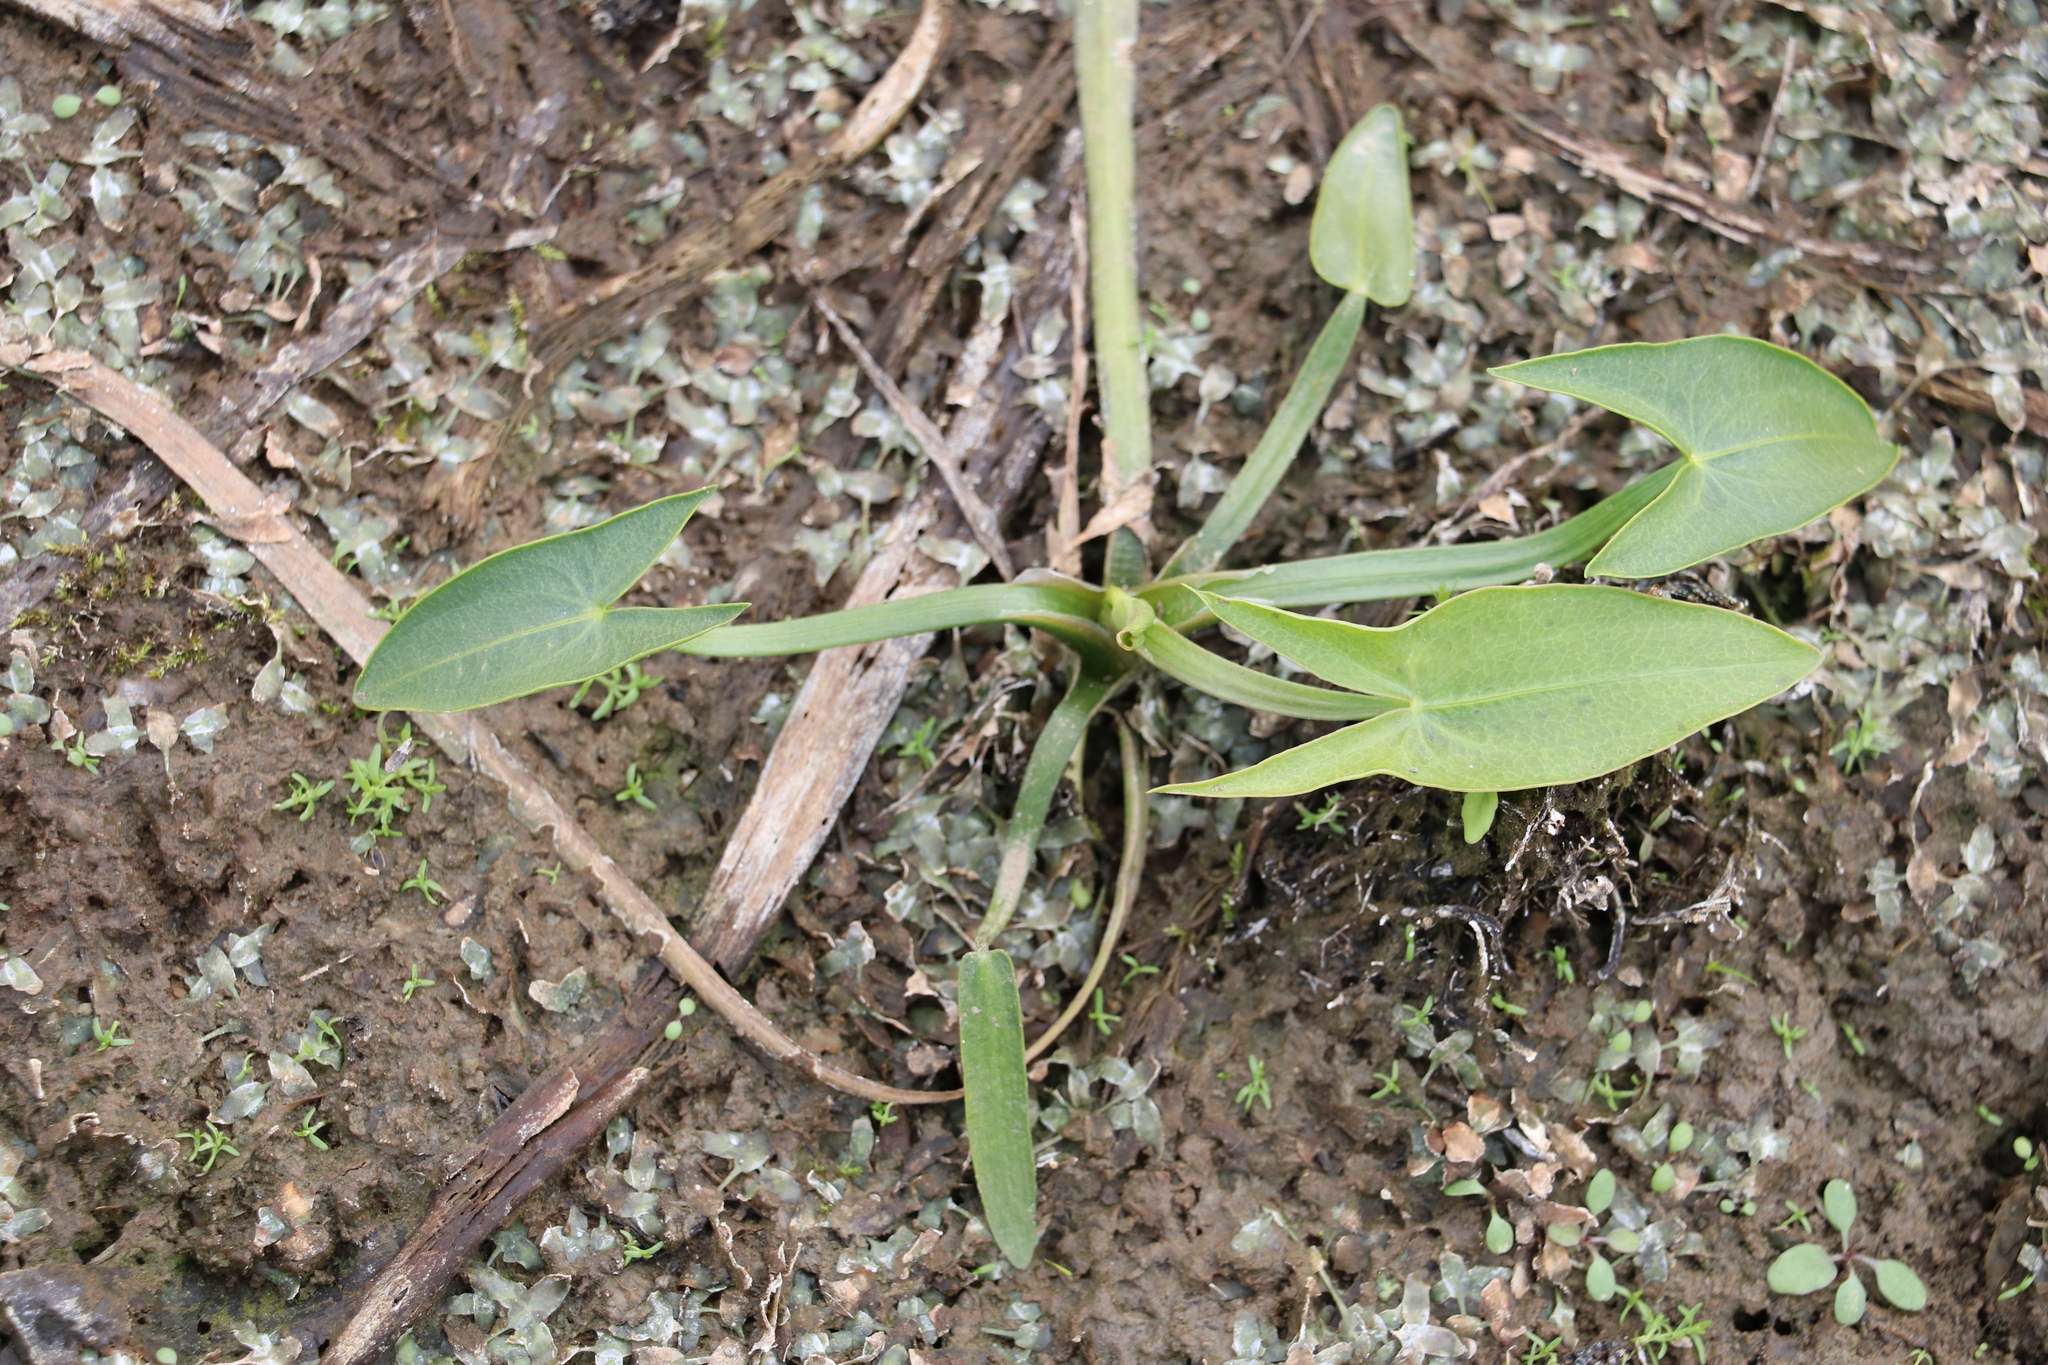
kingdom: Plantae
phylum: Tracheophyta
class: Liliopsida
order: Alismatales
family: Alismataceae
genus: Sagittaria
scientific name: Sagittaria sagittifolia
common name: Arrowhead
